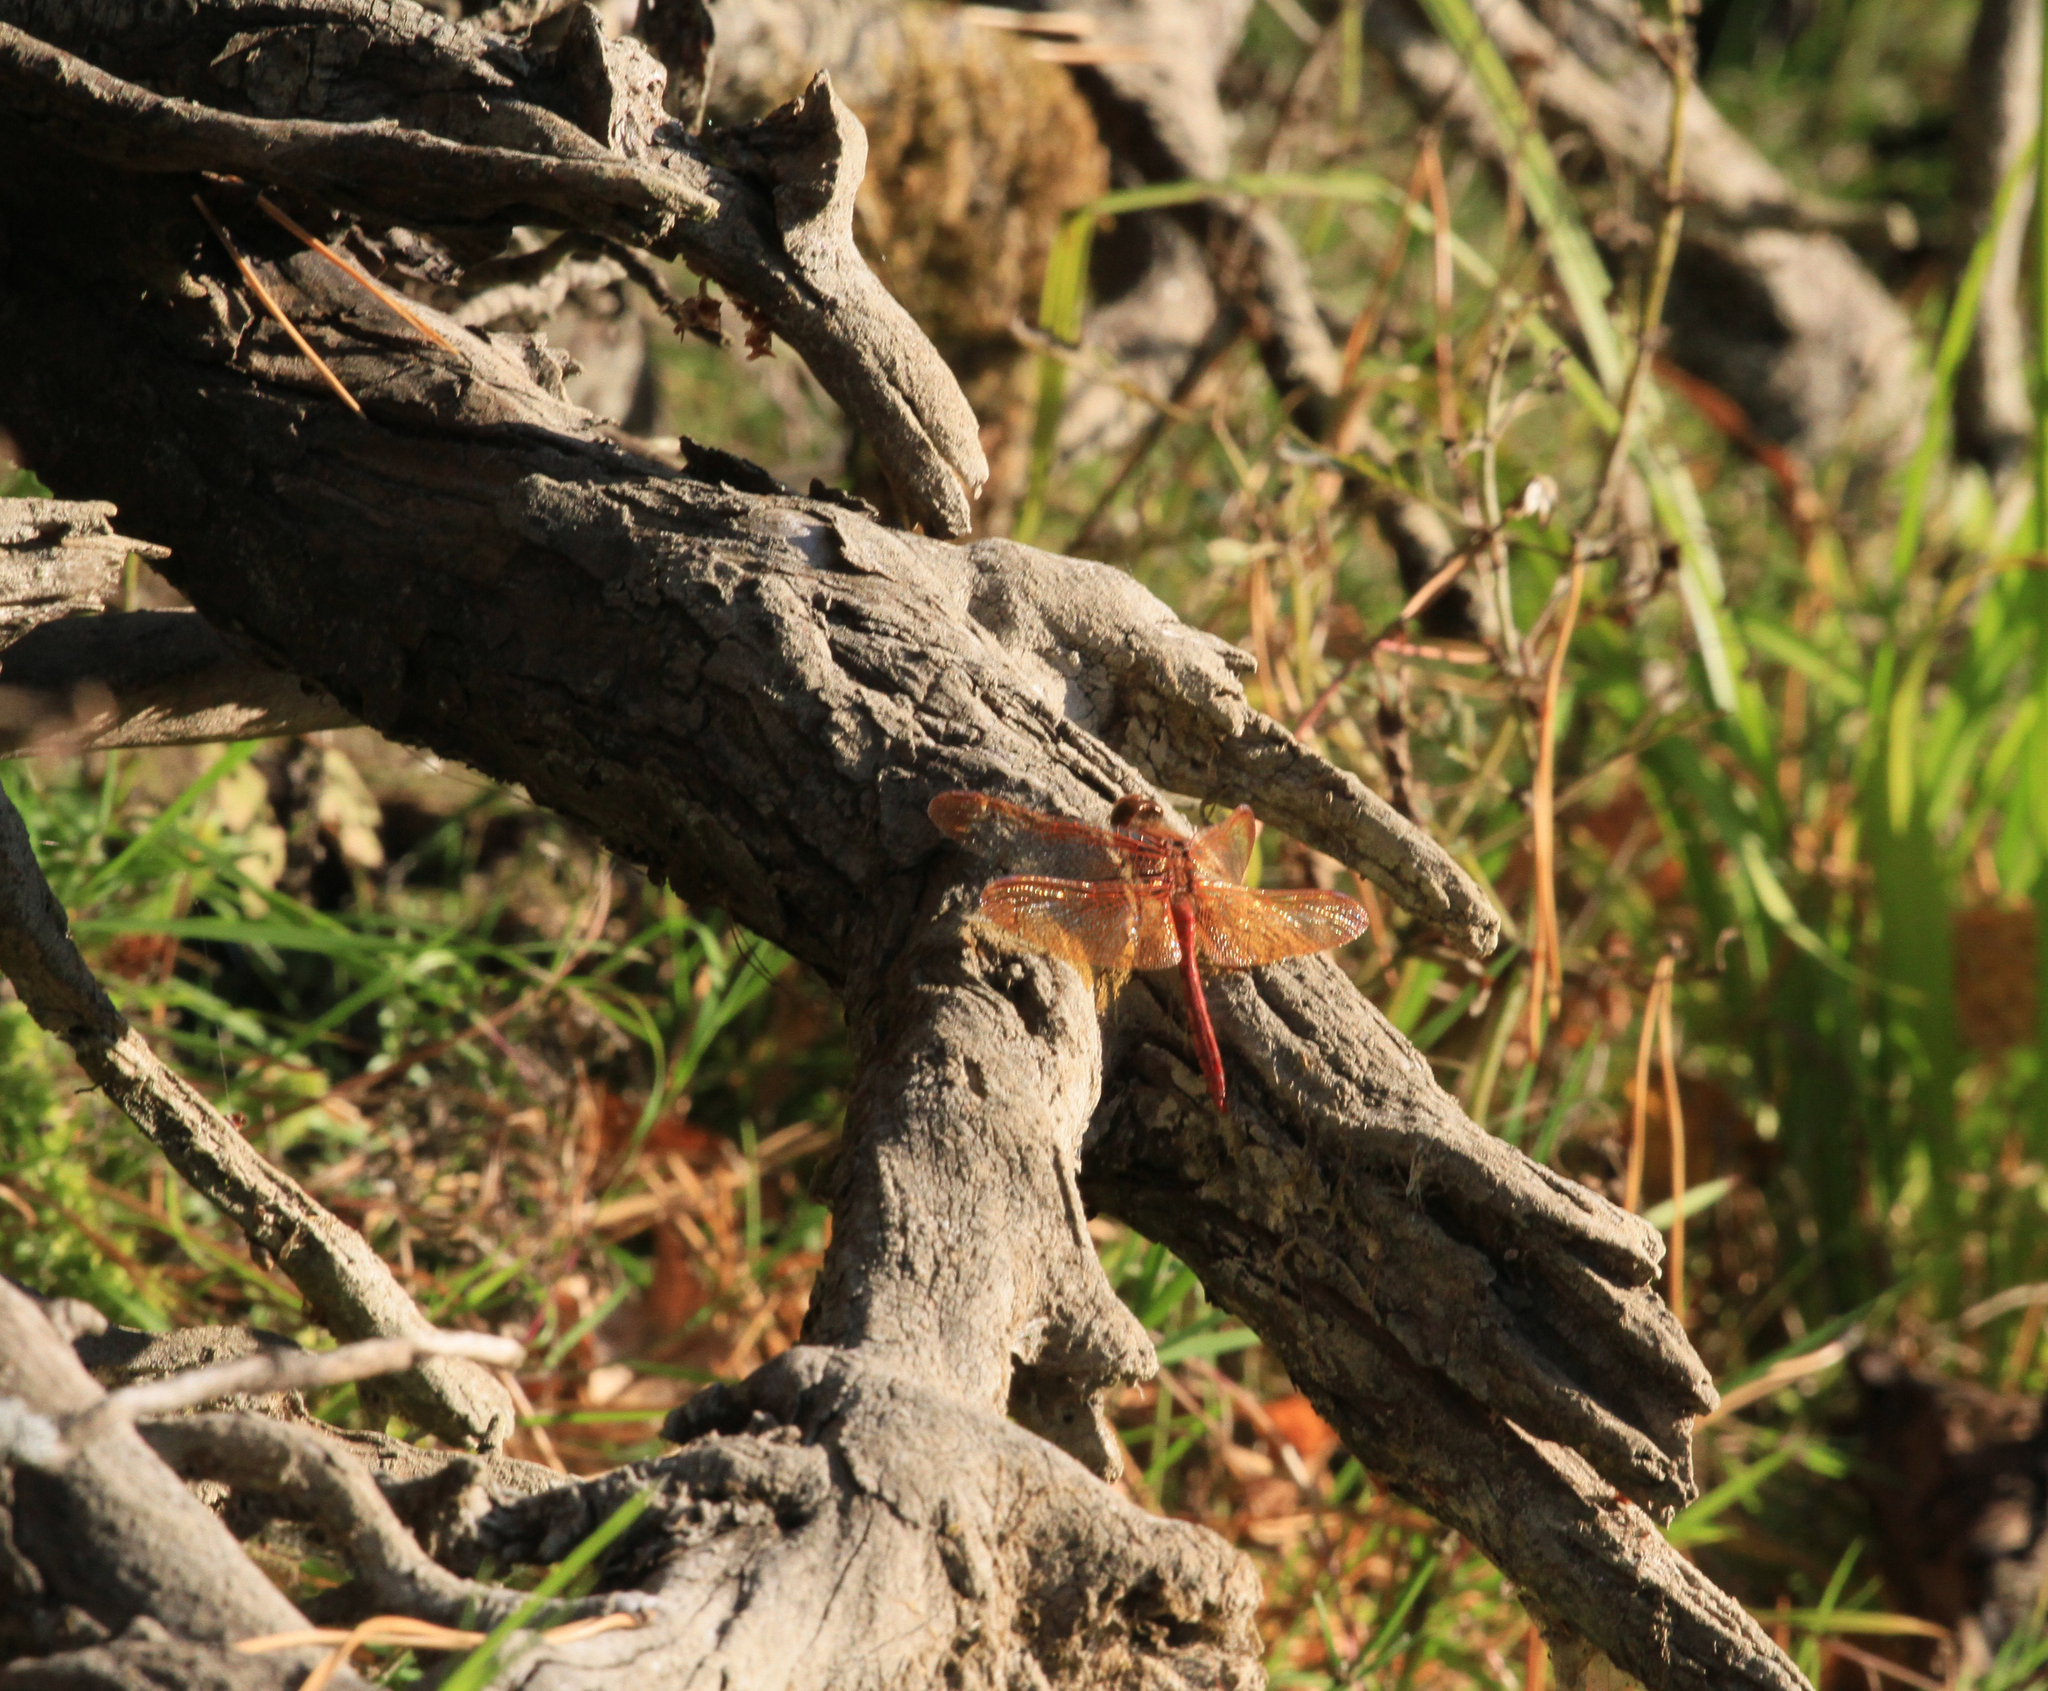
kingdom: Animalia
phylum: Arthropoda
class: Insecta
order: Odonata
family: Libellulidae
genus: Sympetrum
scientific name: Sympetrum croceolum
